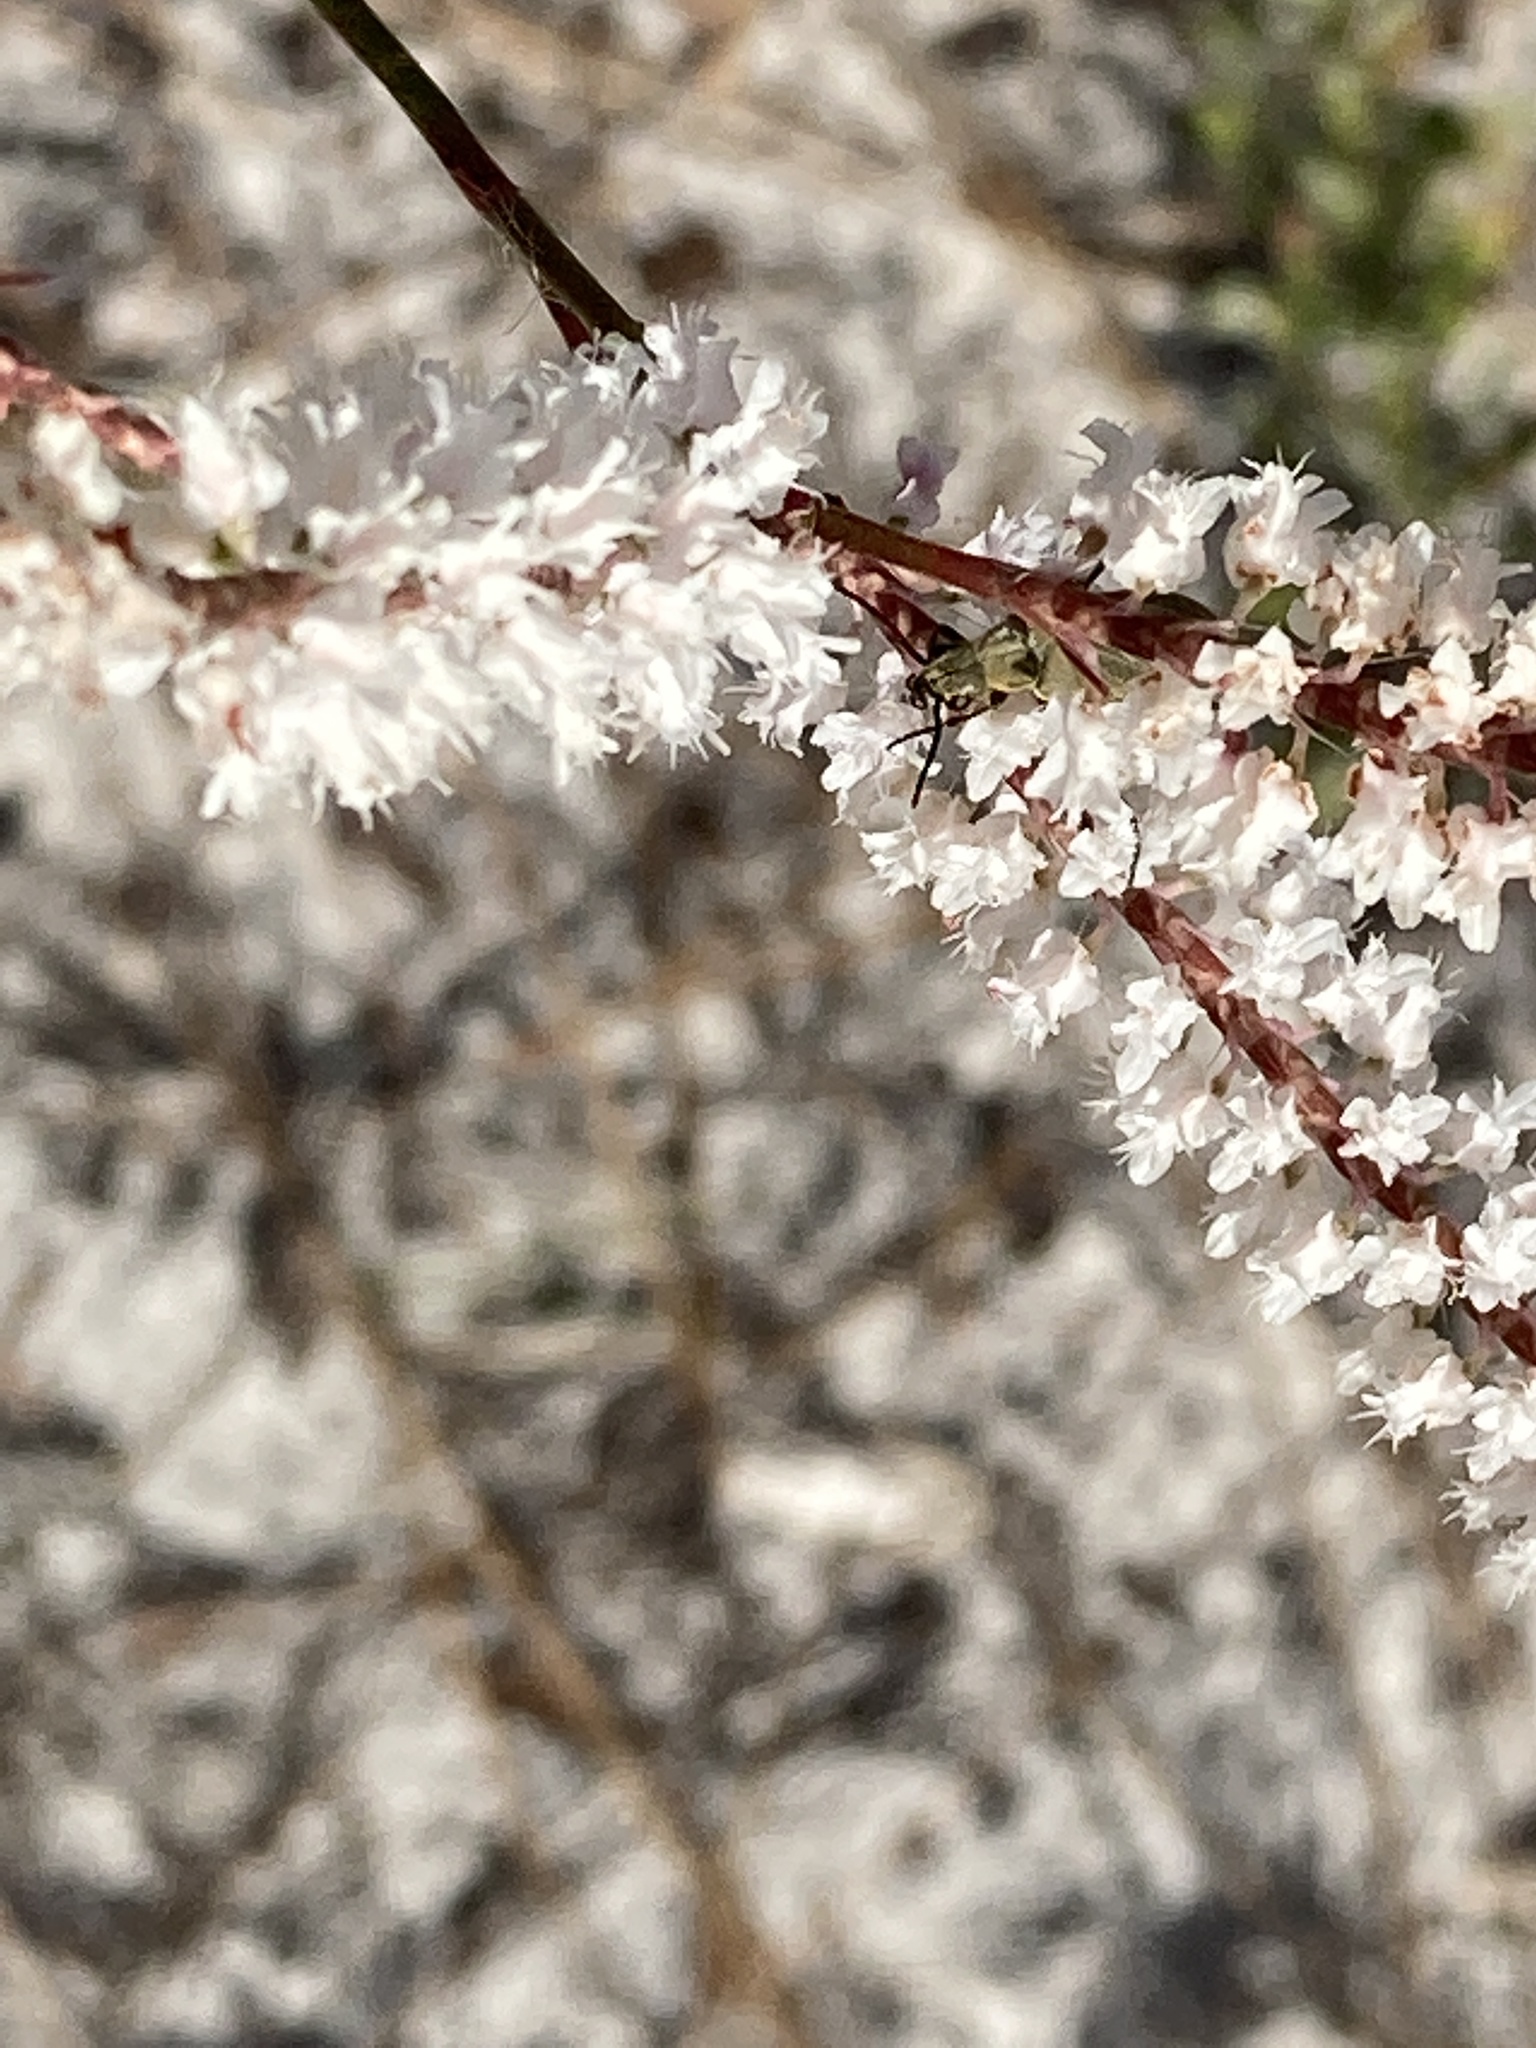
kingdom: Plantae
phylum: Tracheophyta
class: Magnoliopsida
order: Caryophyllales
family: Polygonaceae
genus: Polygonella
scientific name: Polygonella robusta
